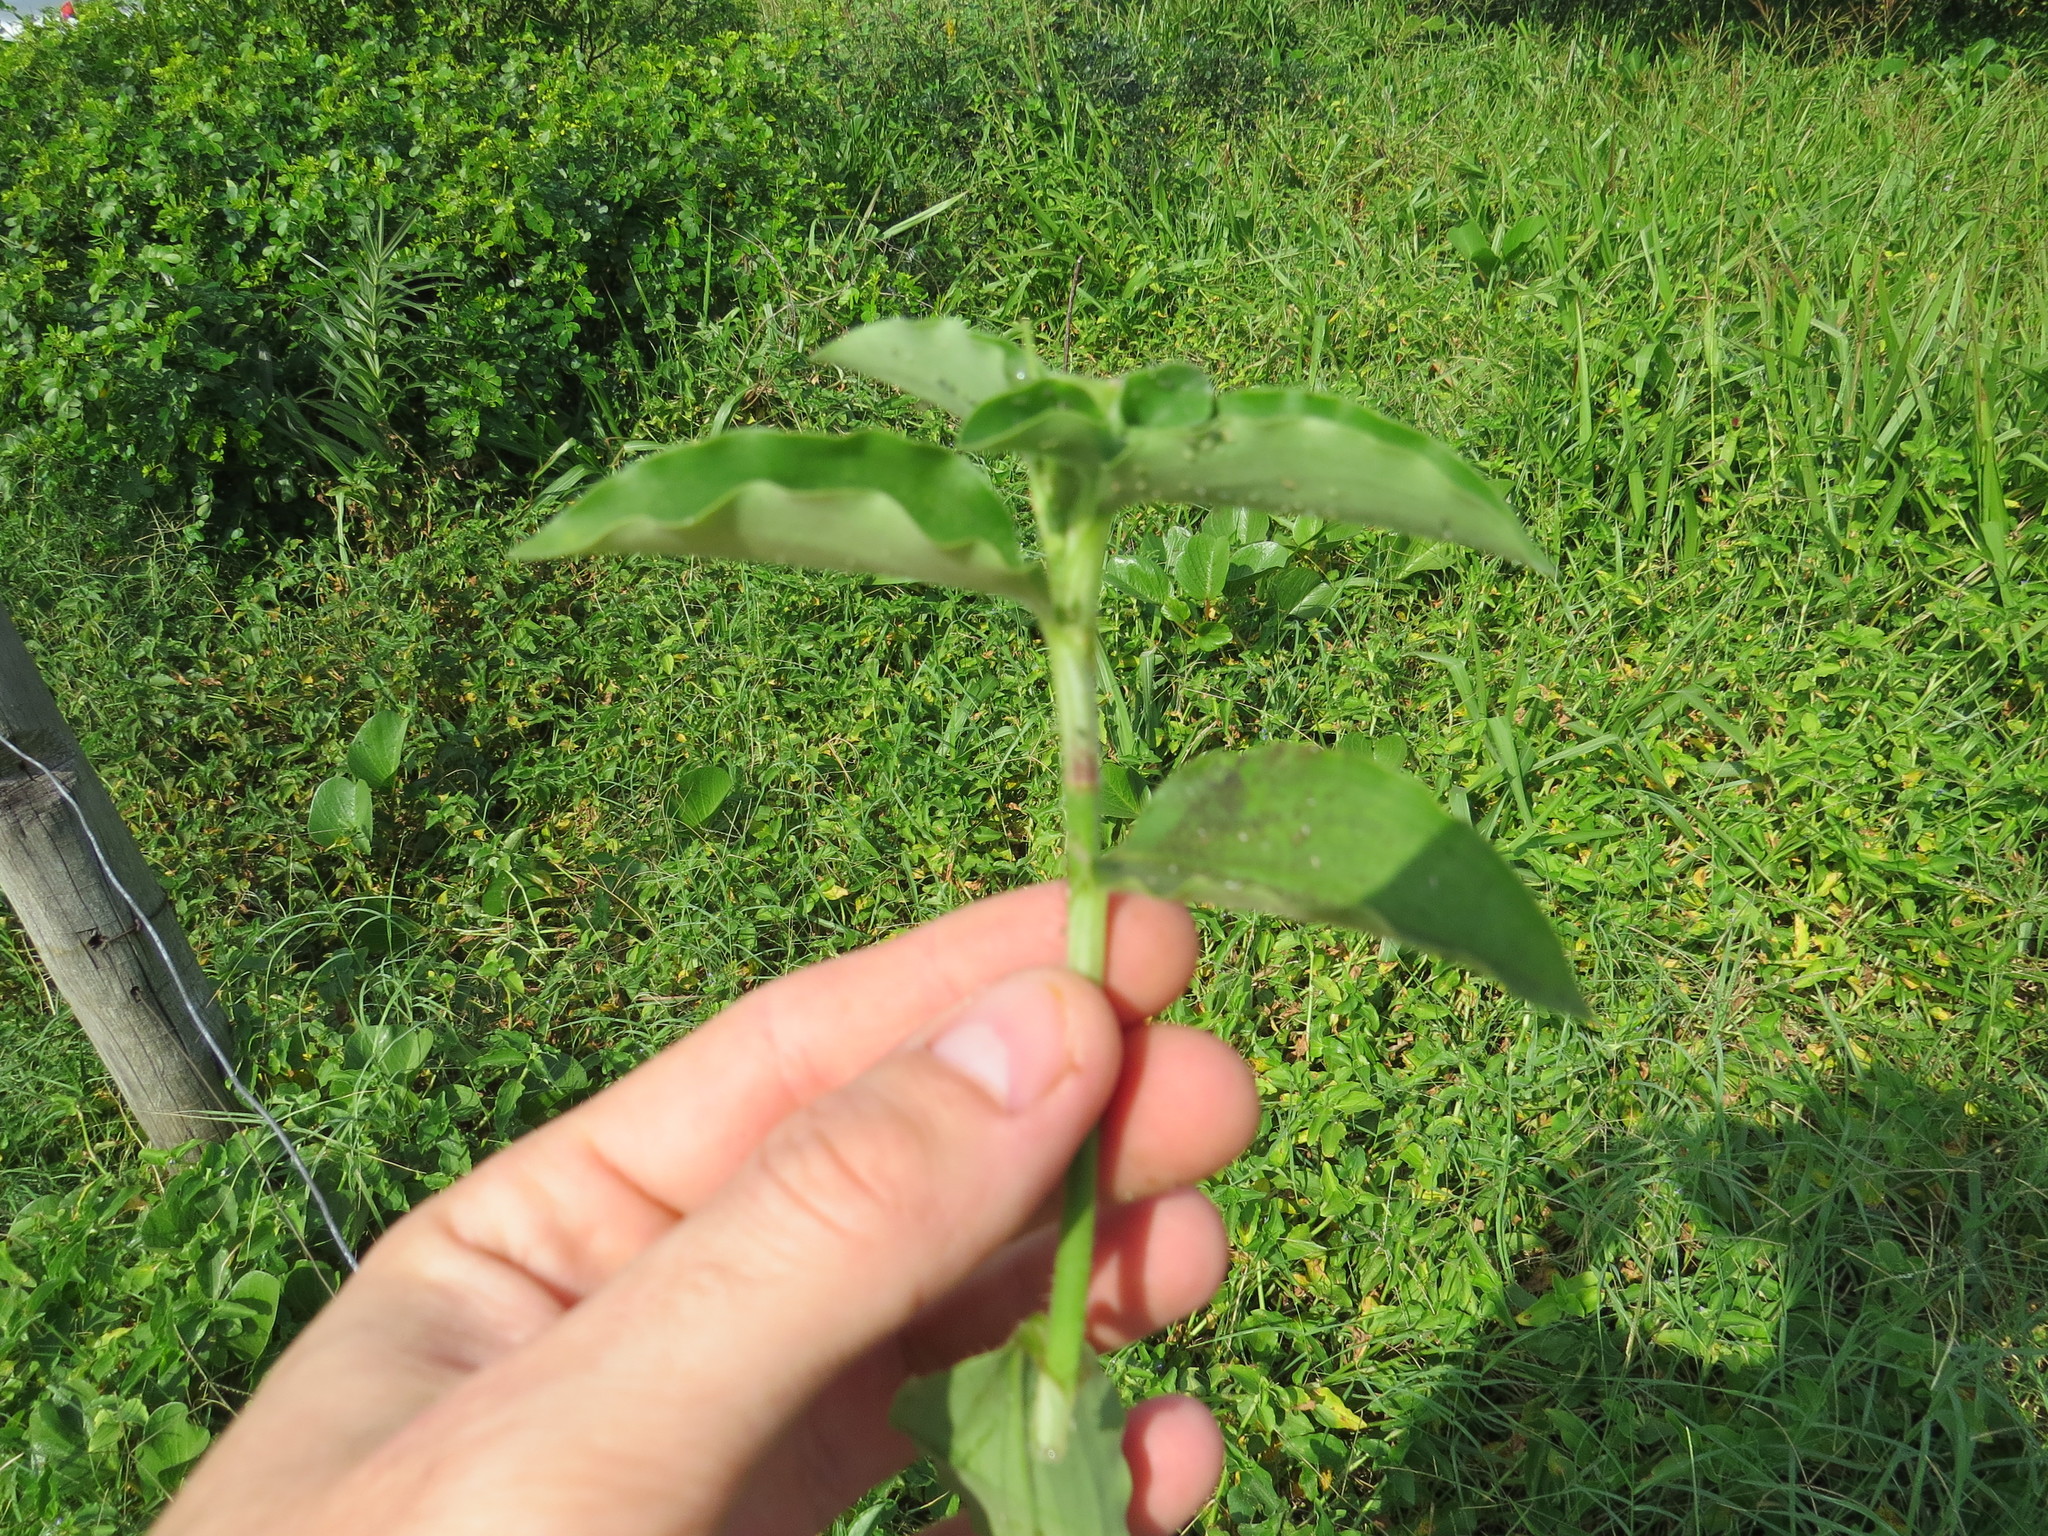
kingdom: Plantae
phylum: Tracheophyta
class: Liliopsida
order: Commelinales
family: Commelinaceae
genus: Commelina
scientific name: Commelina benghalensis
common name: Jio
